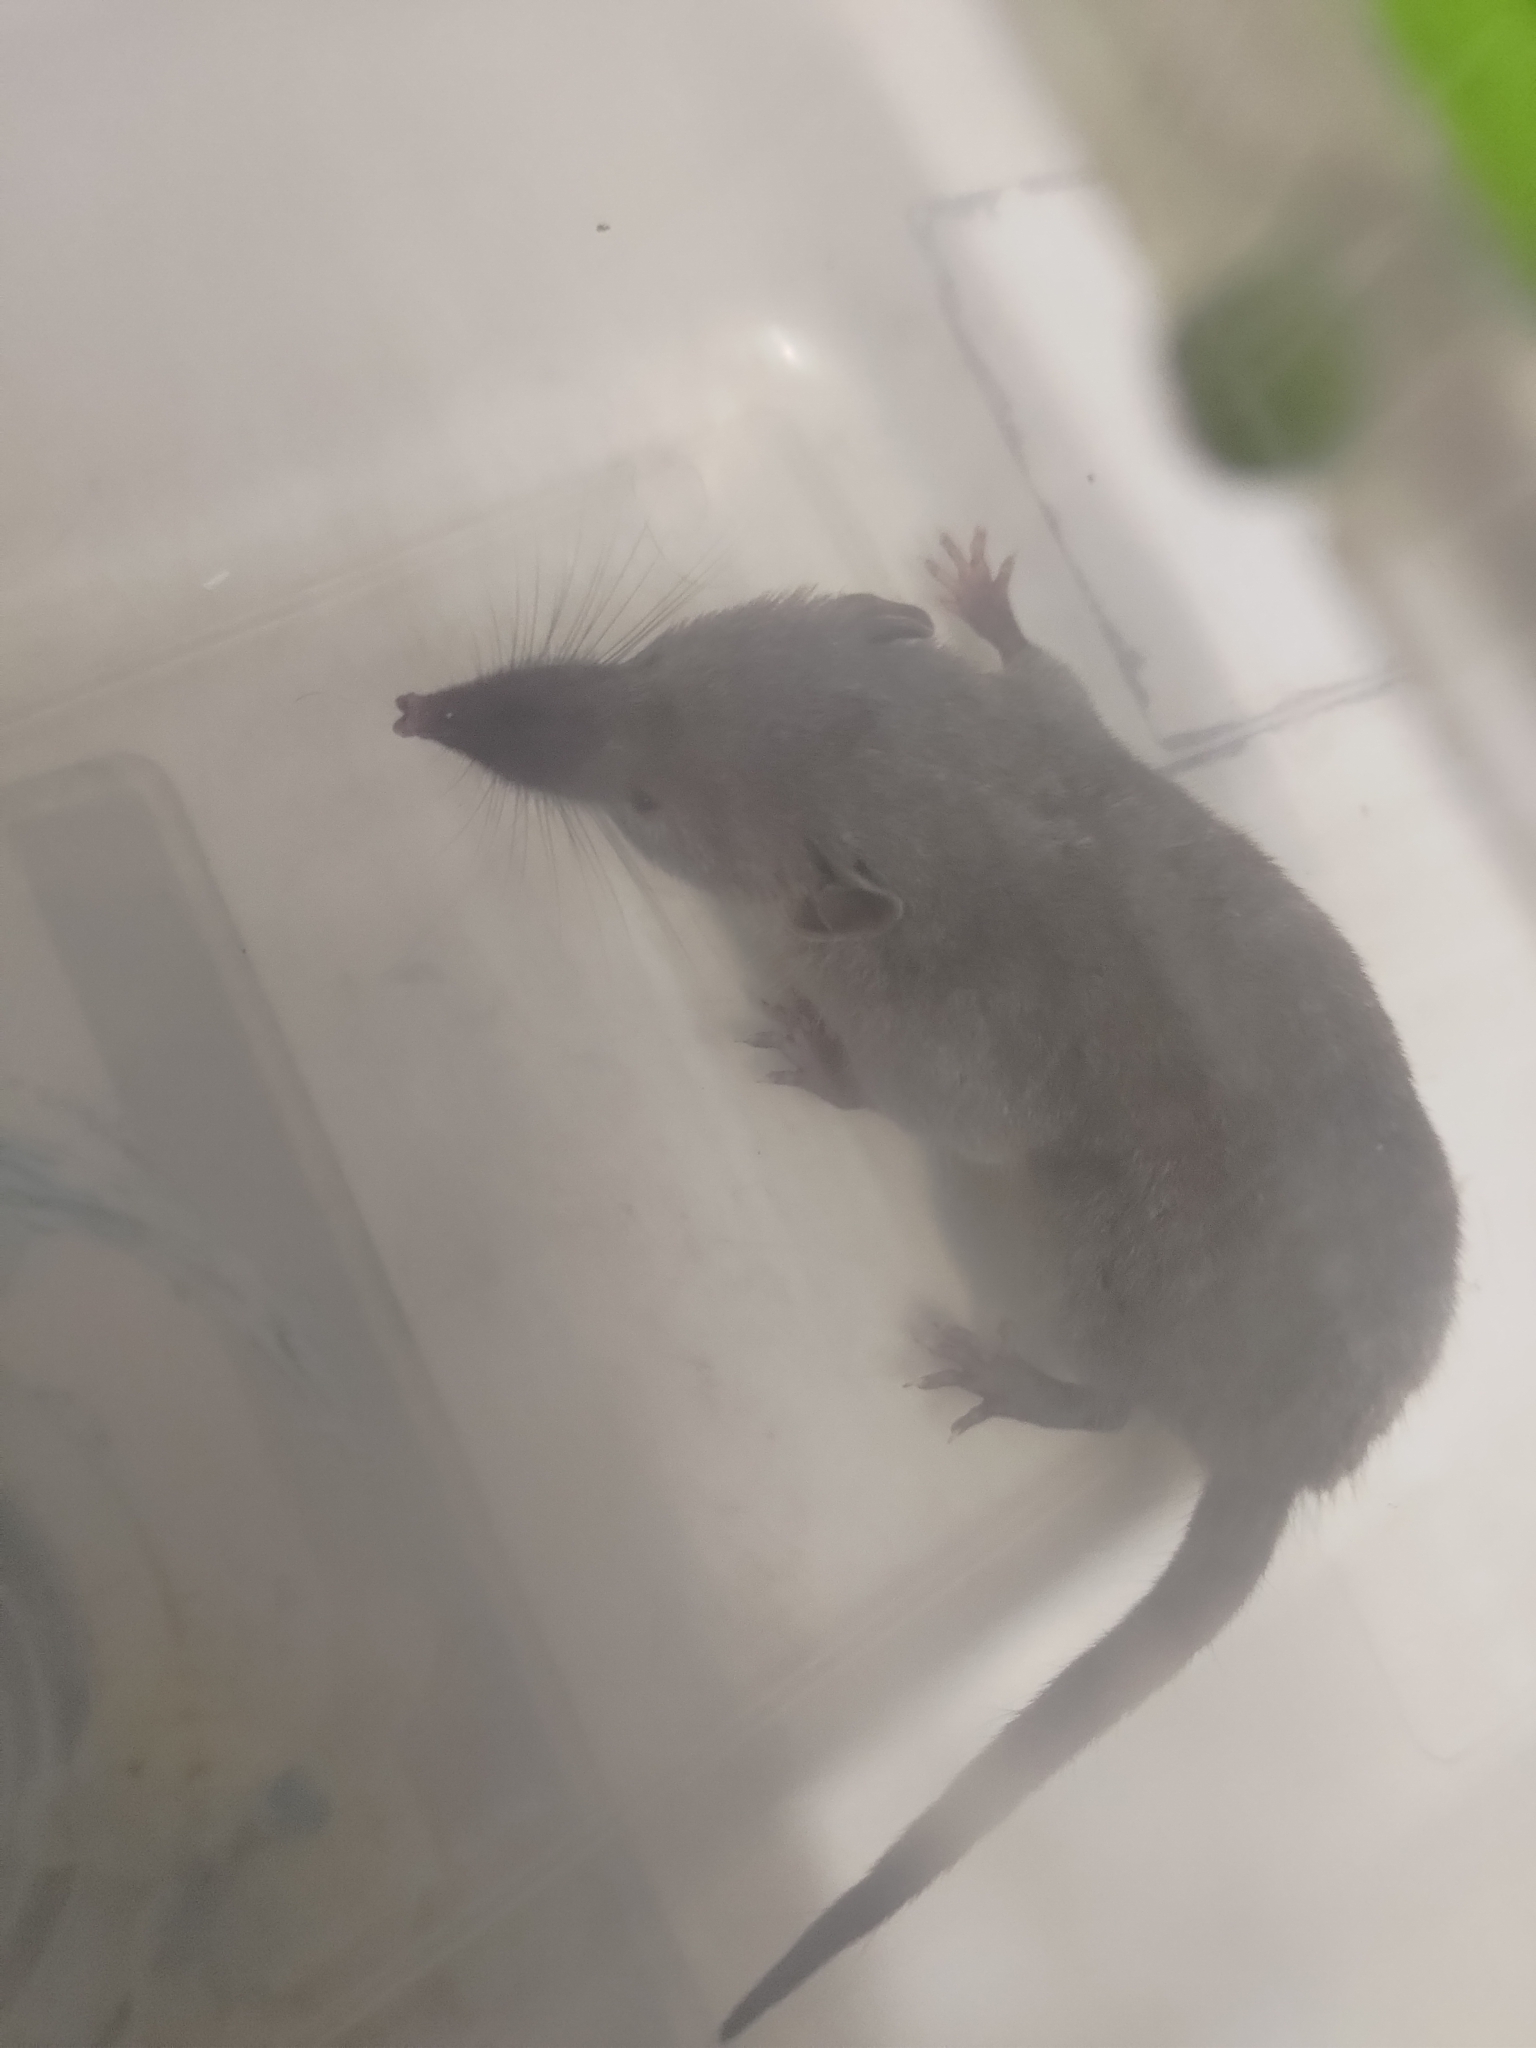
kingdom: Animalia
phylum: Chordata
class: Mammalia
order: Soricomorpha
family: Soricidae
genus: Suncus
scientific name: Suncus murinus
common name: Asian house shrew
